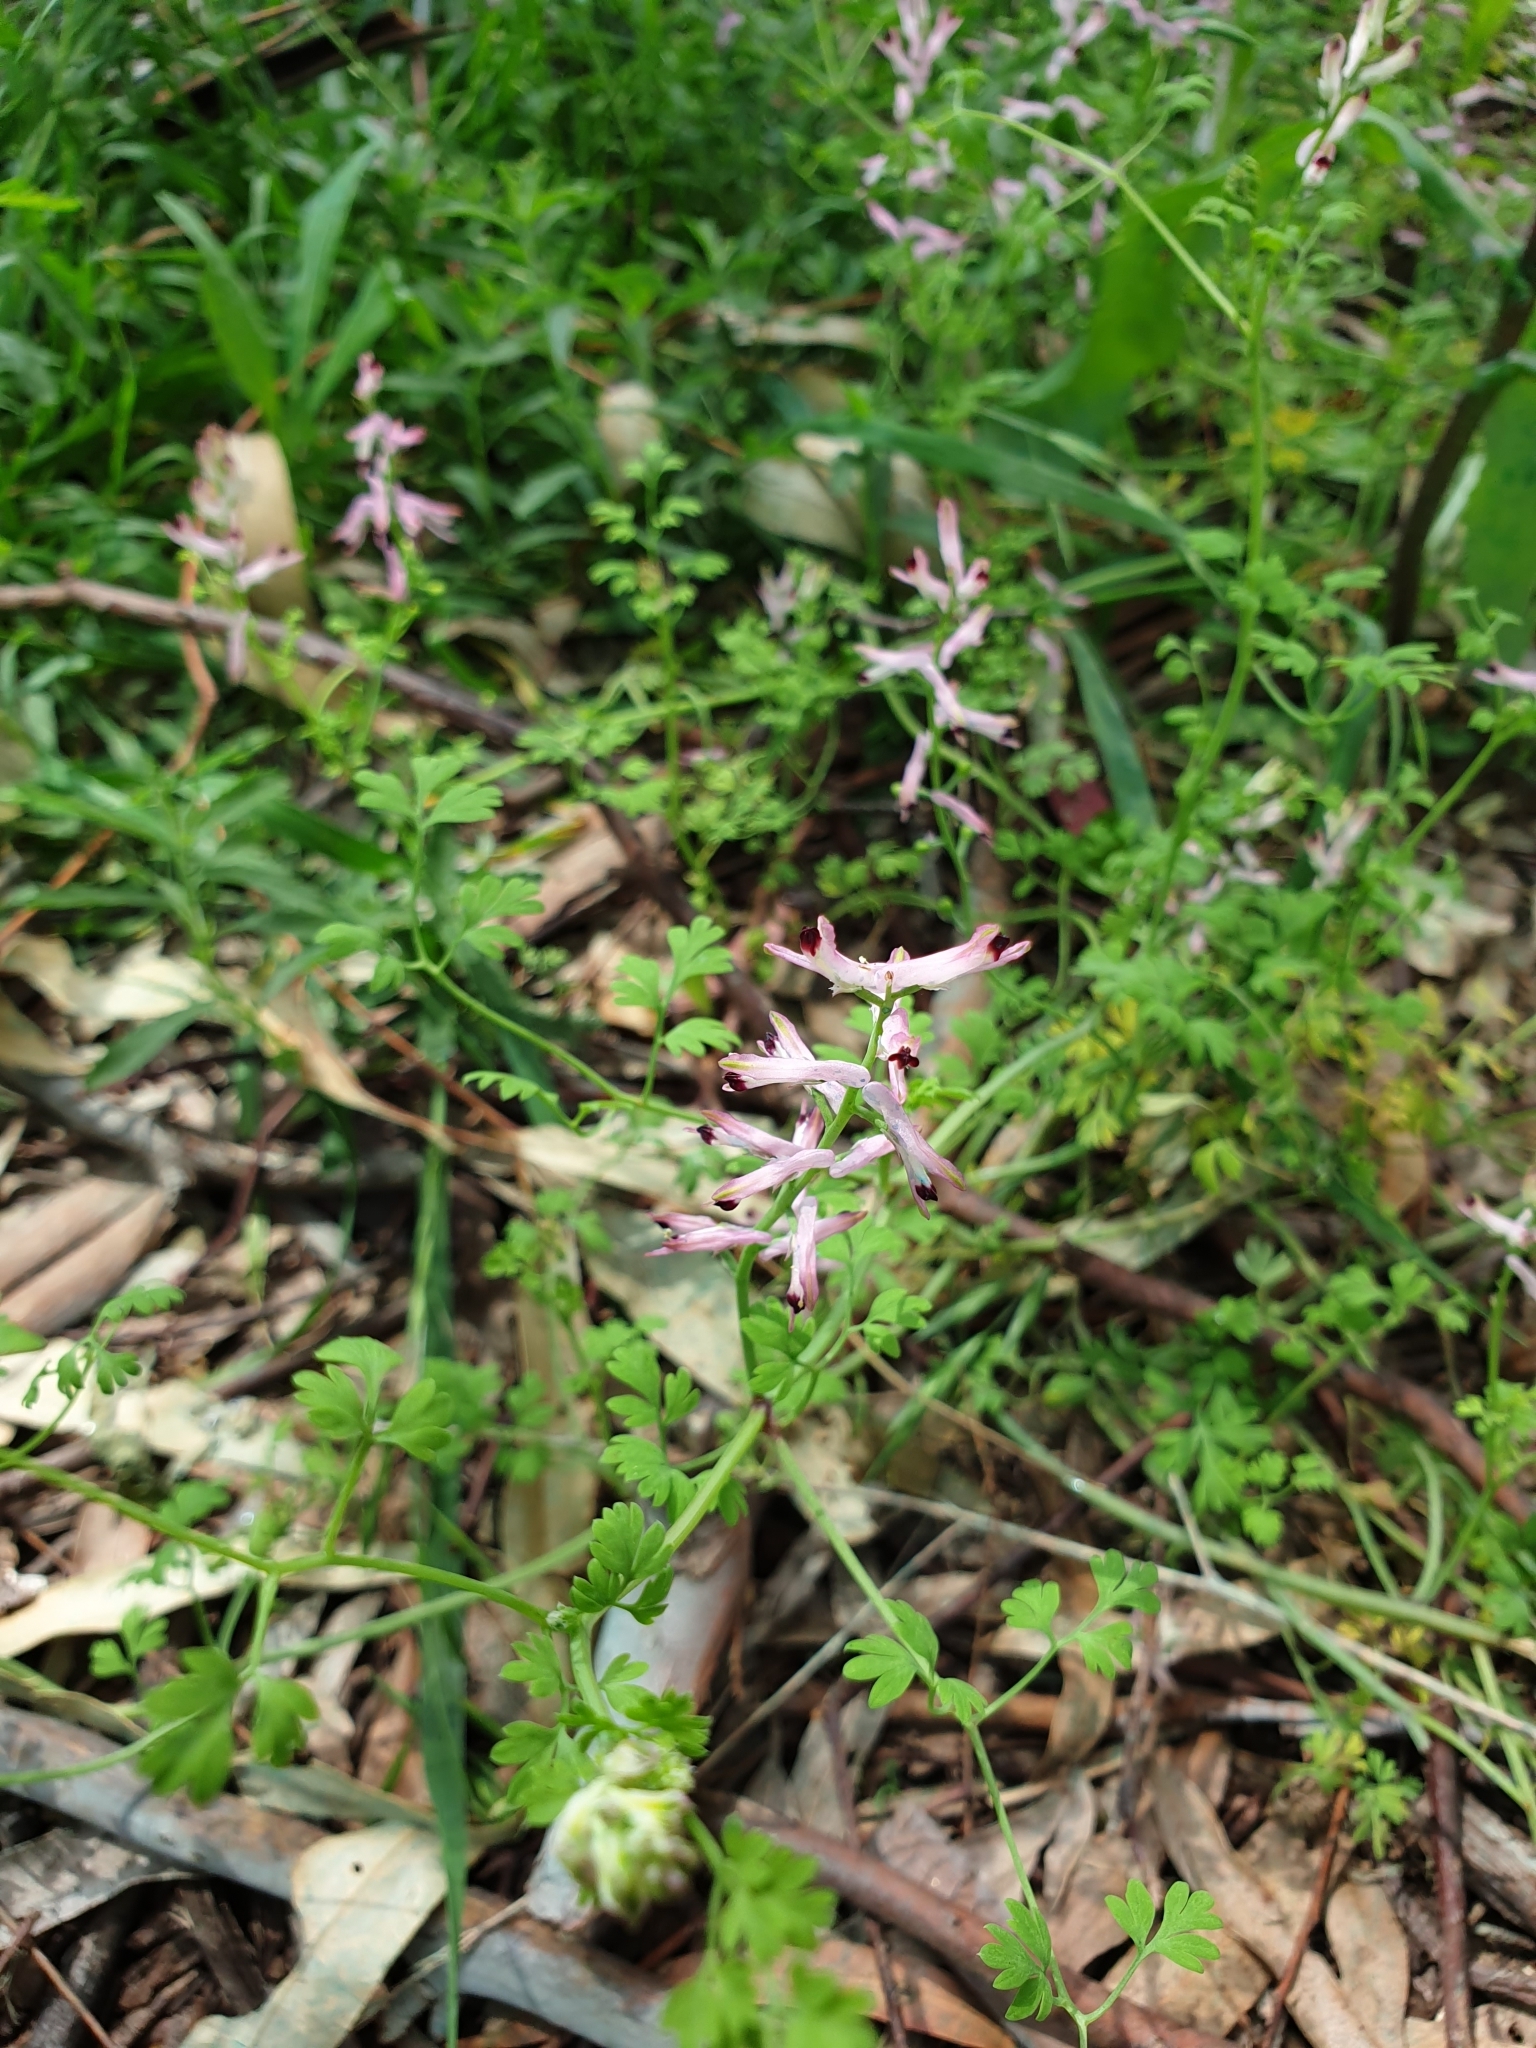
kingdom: Plantae
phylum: Tracheophyta
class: Magnoliopsida
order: Ranunculales
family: Papaveraceae
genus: Fumaria
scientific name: Fumaria muralis
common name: Common ramping-fumitory
